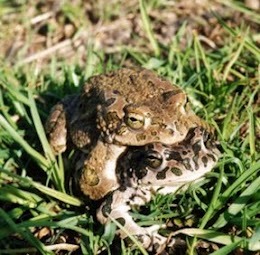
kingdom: Animalia
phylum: Chordata
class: Amphibia
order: Anura
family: Bufonidae
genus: Bufotes
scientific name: Bufotes viridis
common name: European green toad
